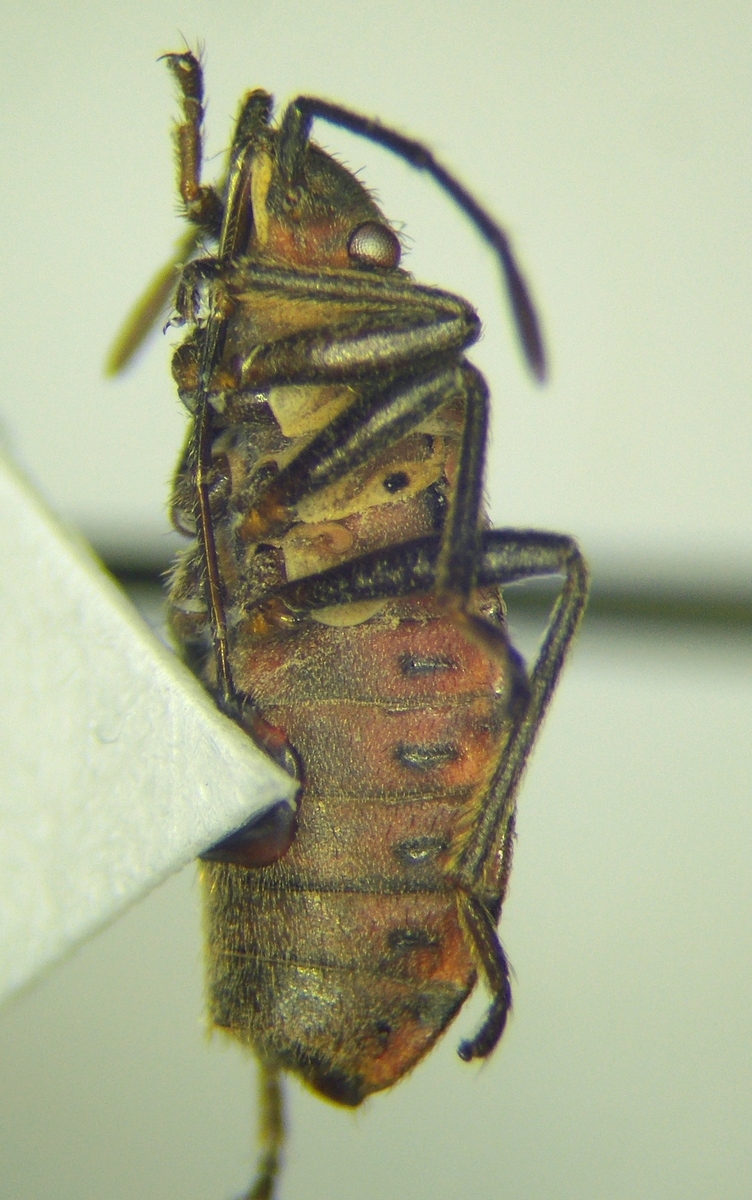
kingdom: Animalia
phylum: Arthropoda
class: Insecta
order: Hemiptera
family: Lygaeidae
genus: Apterola
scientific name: Apterola kunckeli
